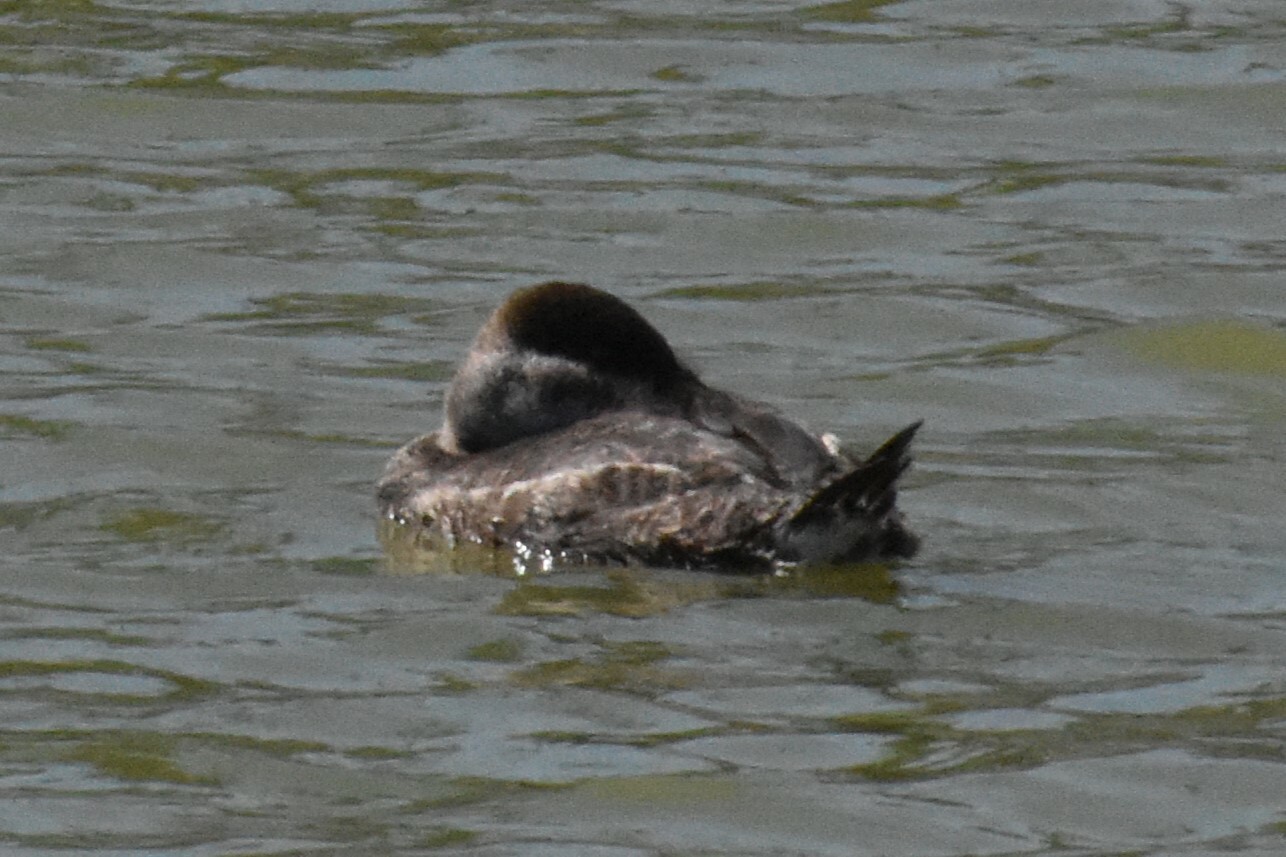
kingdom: Animalia
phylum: Chordata
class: Aves
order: Anseriformes
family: Anatidae
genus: Oxyura
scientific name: Oxyura jamaicensis
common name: Ruddy duck
